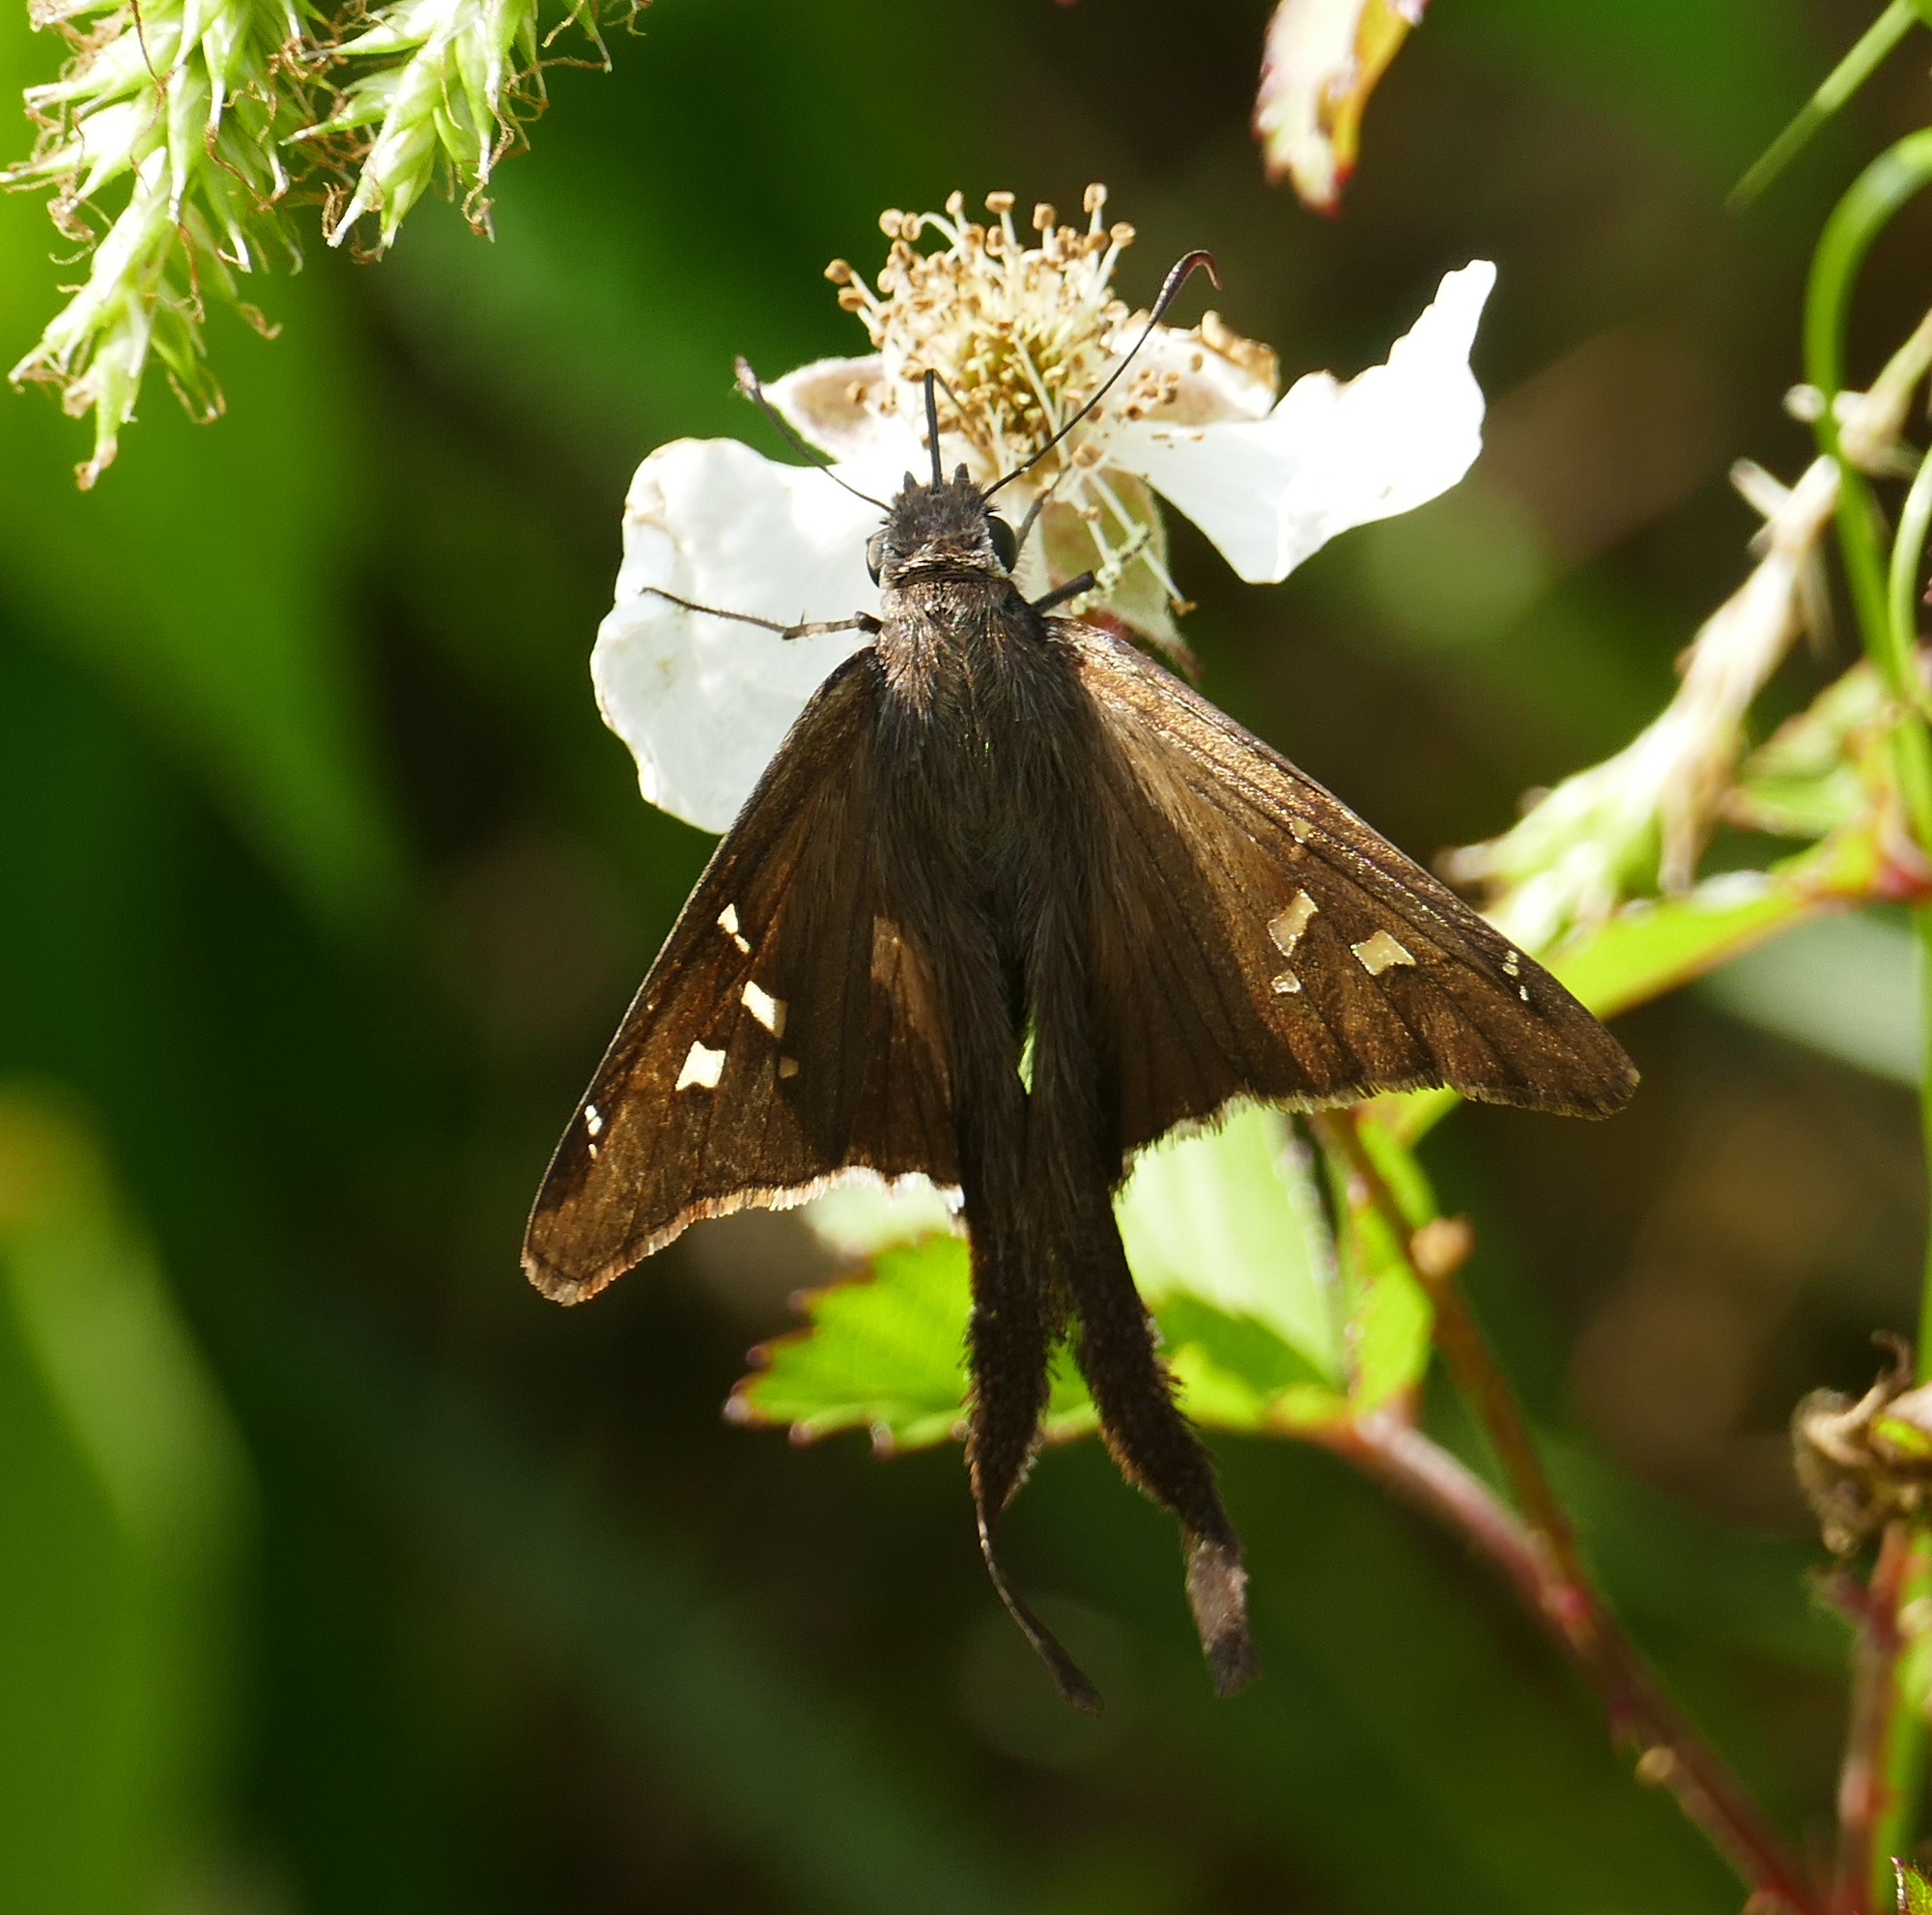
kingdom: Animalia
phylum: Arthropoda
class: Insecta
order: Lepidoptera
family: Hesperiidae
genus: Chioides
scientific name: Chioides catillus
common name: Silverbanded skipper
